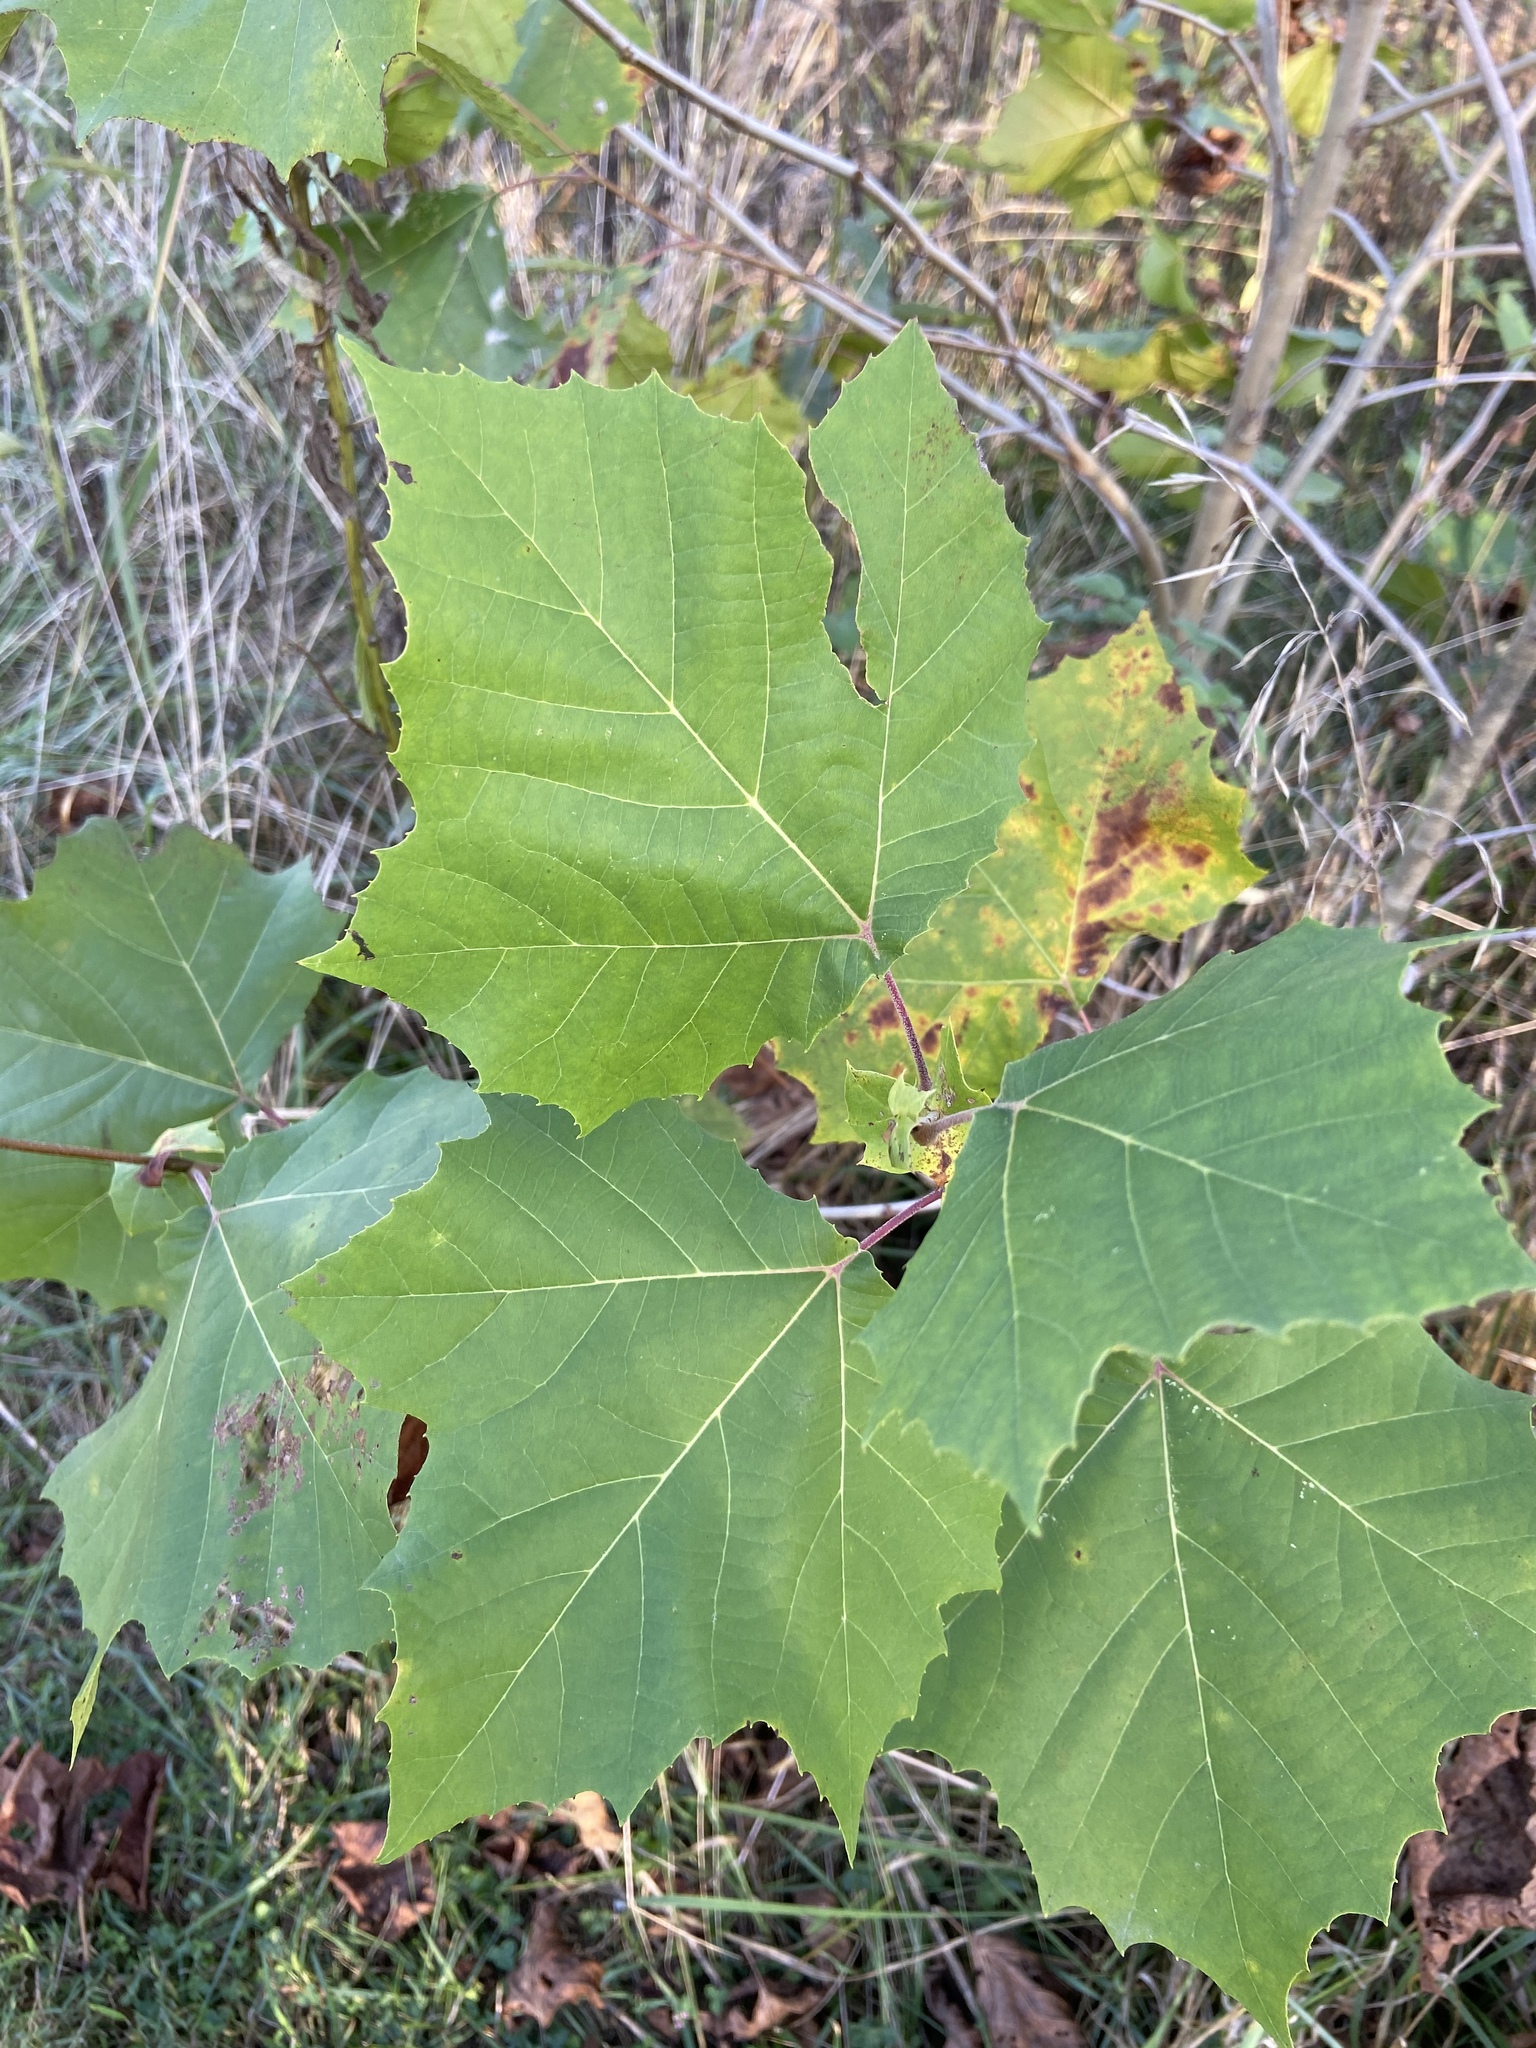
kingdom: Plantae
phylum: Tracheophyta
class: Magnoliopsida
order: Proteales
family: Platanaceae
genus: Platanus
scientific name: Platanus occidentalis
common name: American sycamore
